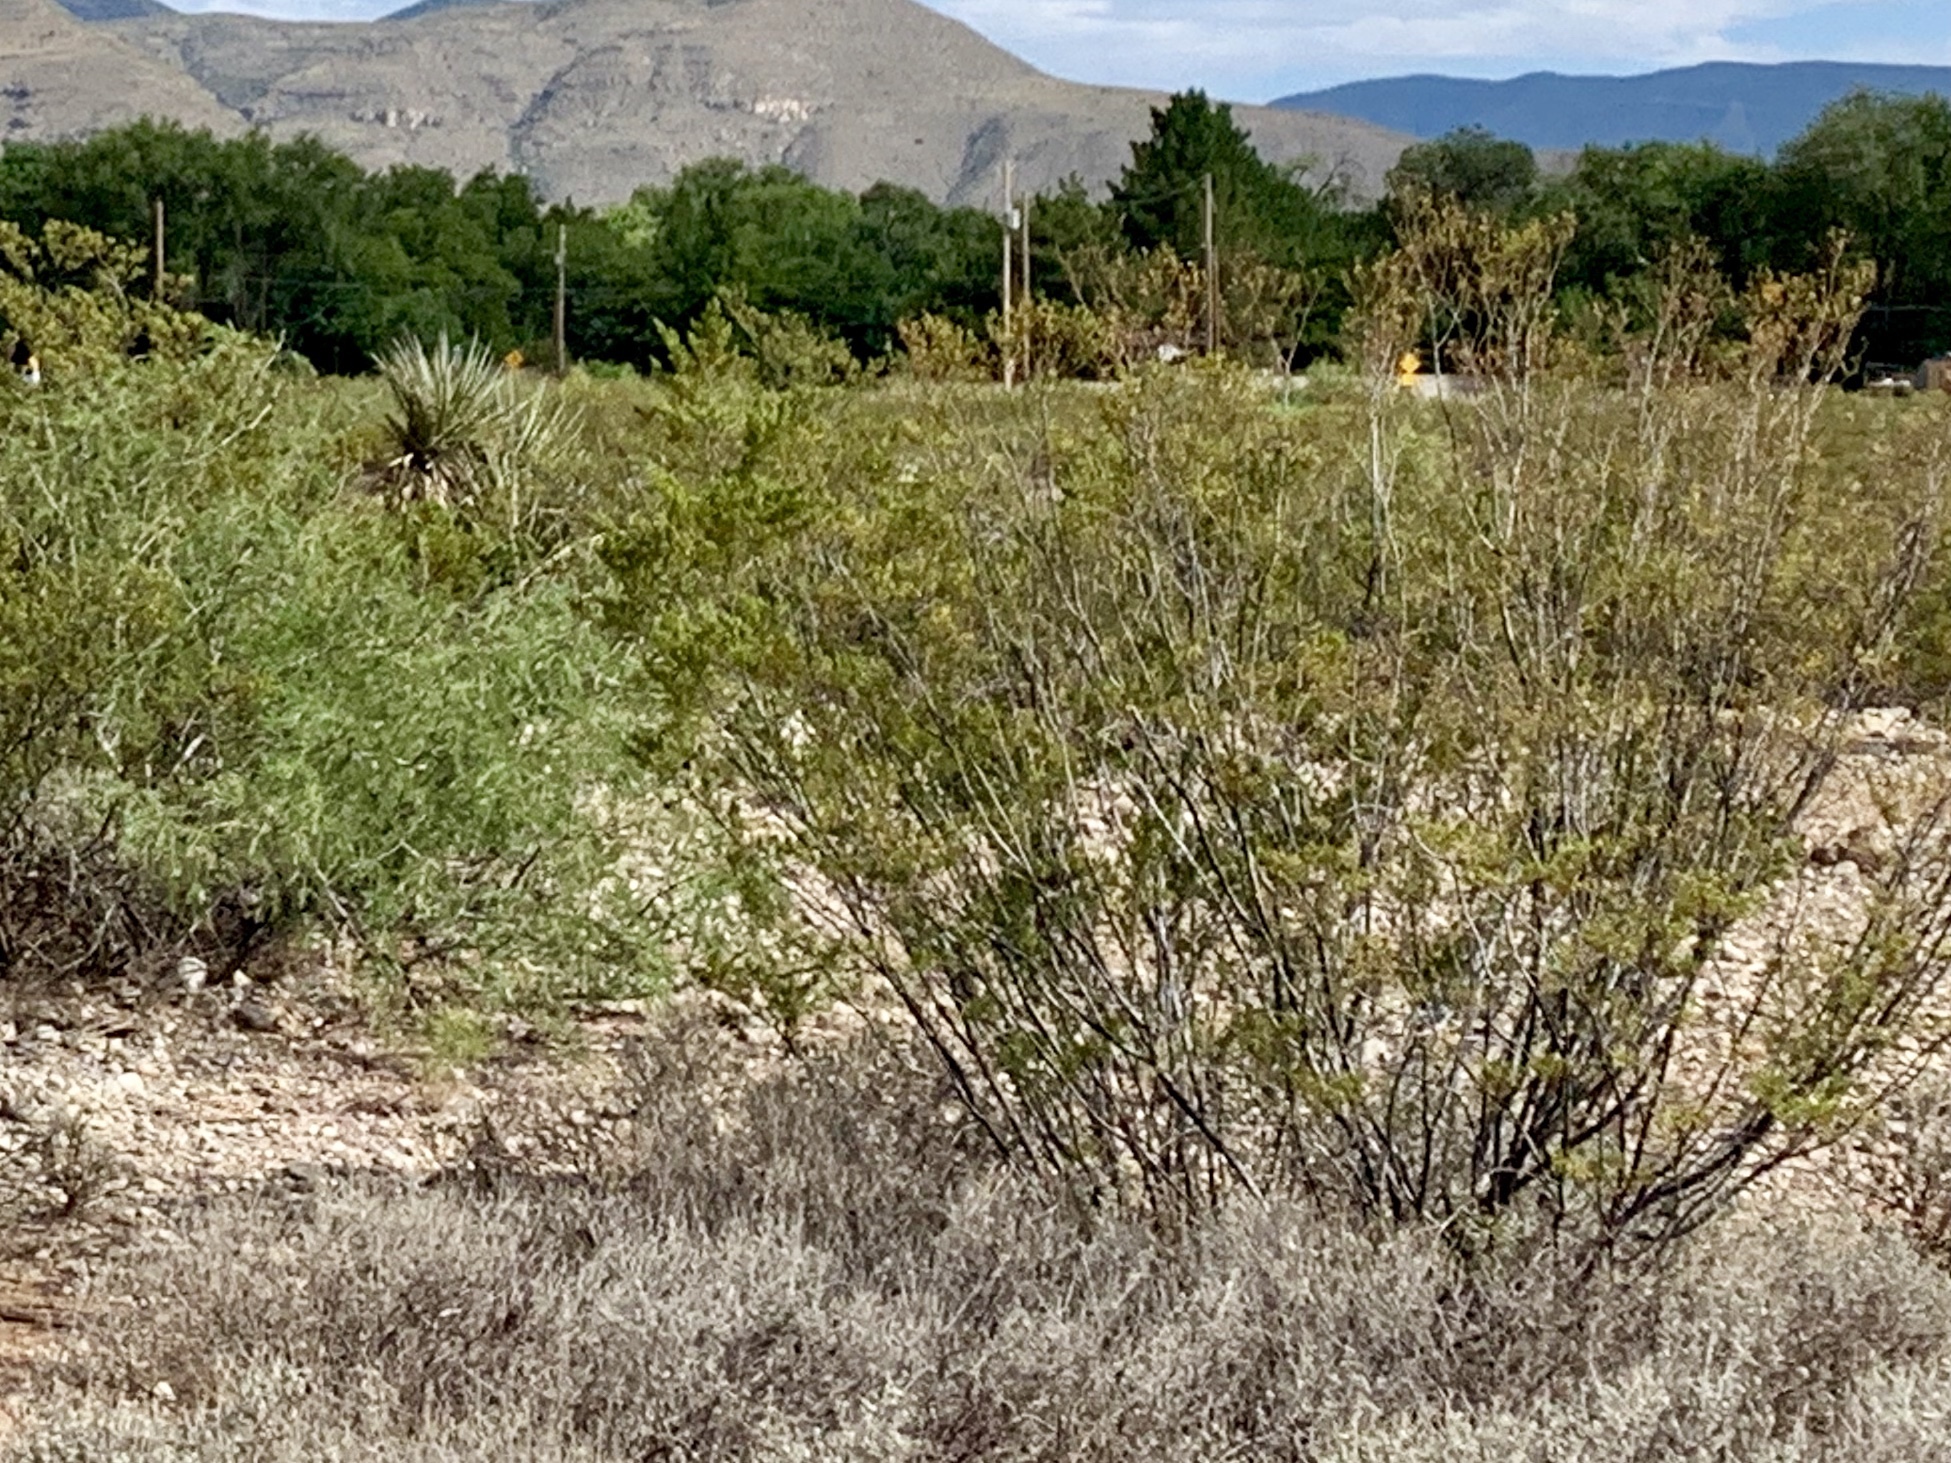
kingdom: Plantae
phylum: Tracheophyta
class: Magnoliopsida
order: Zygophyllales
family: Zygophyllaceae
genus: Larrea
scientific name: Larrea tridentata
